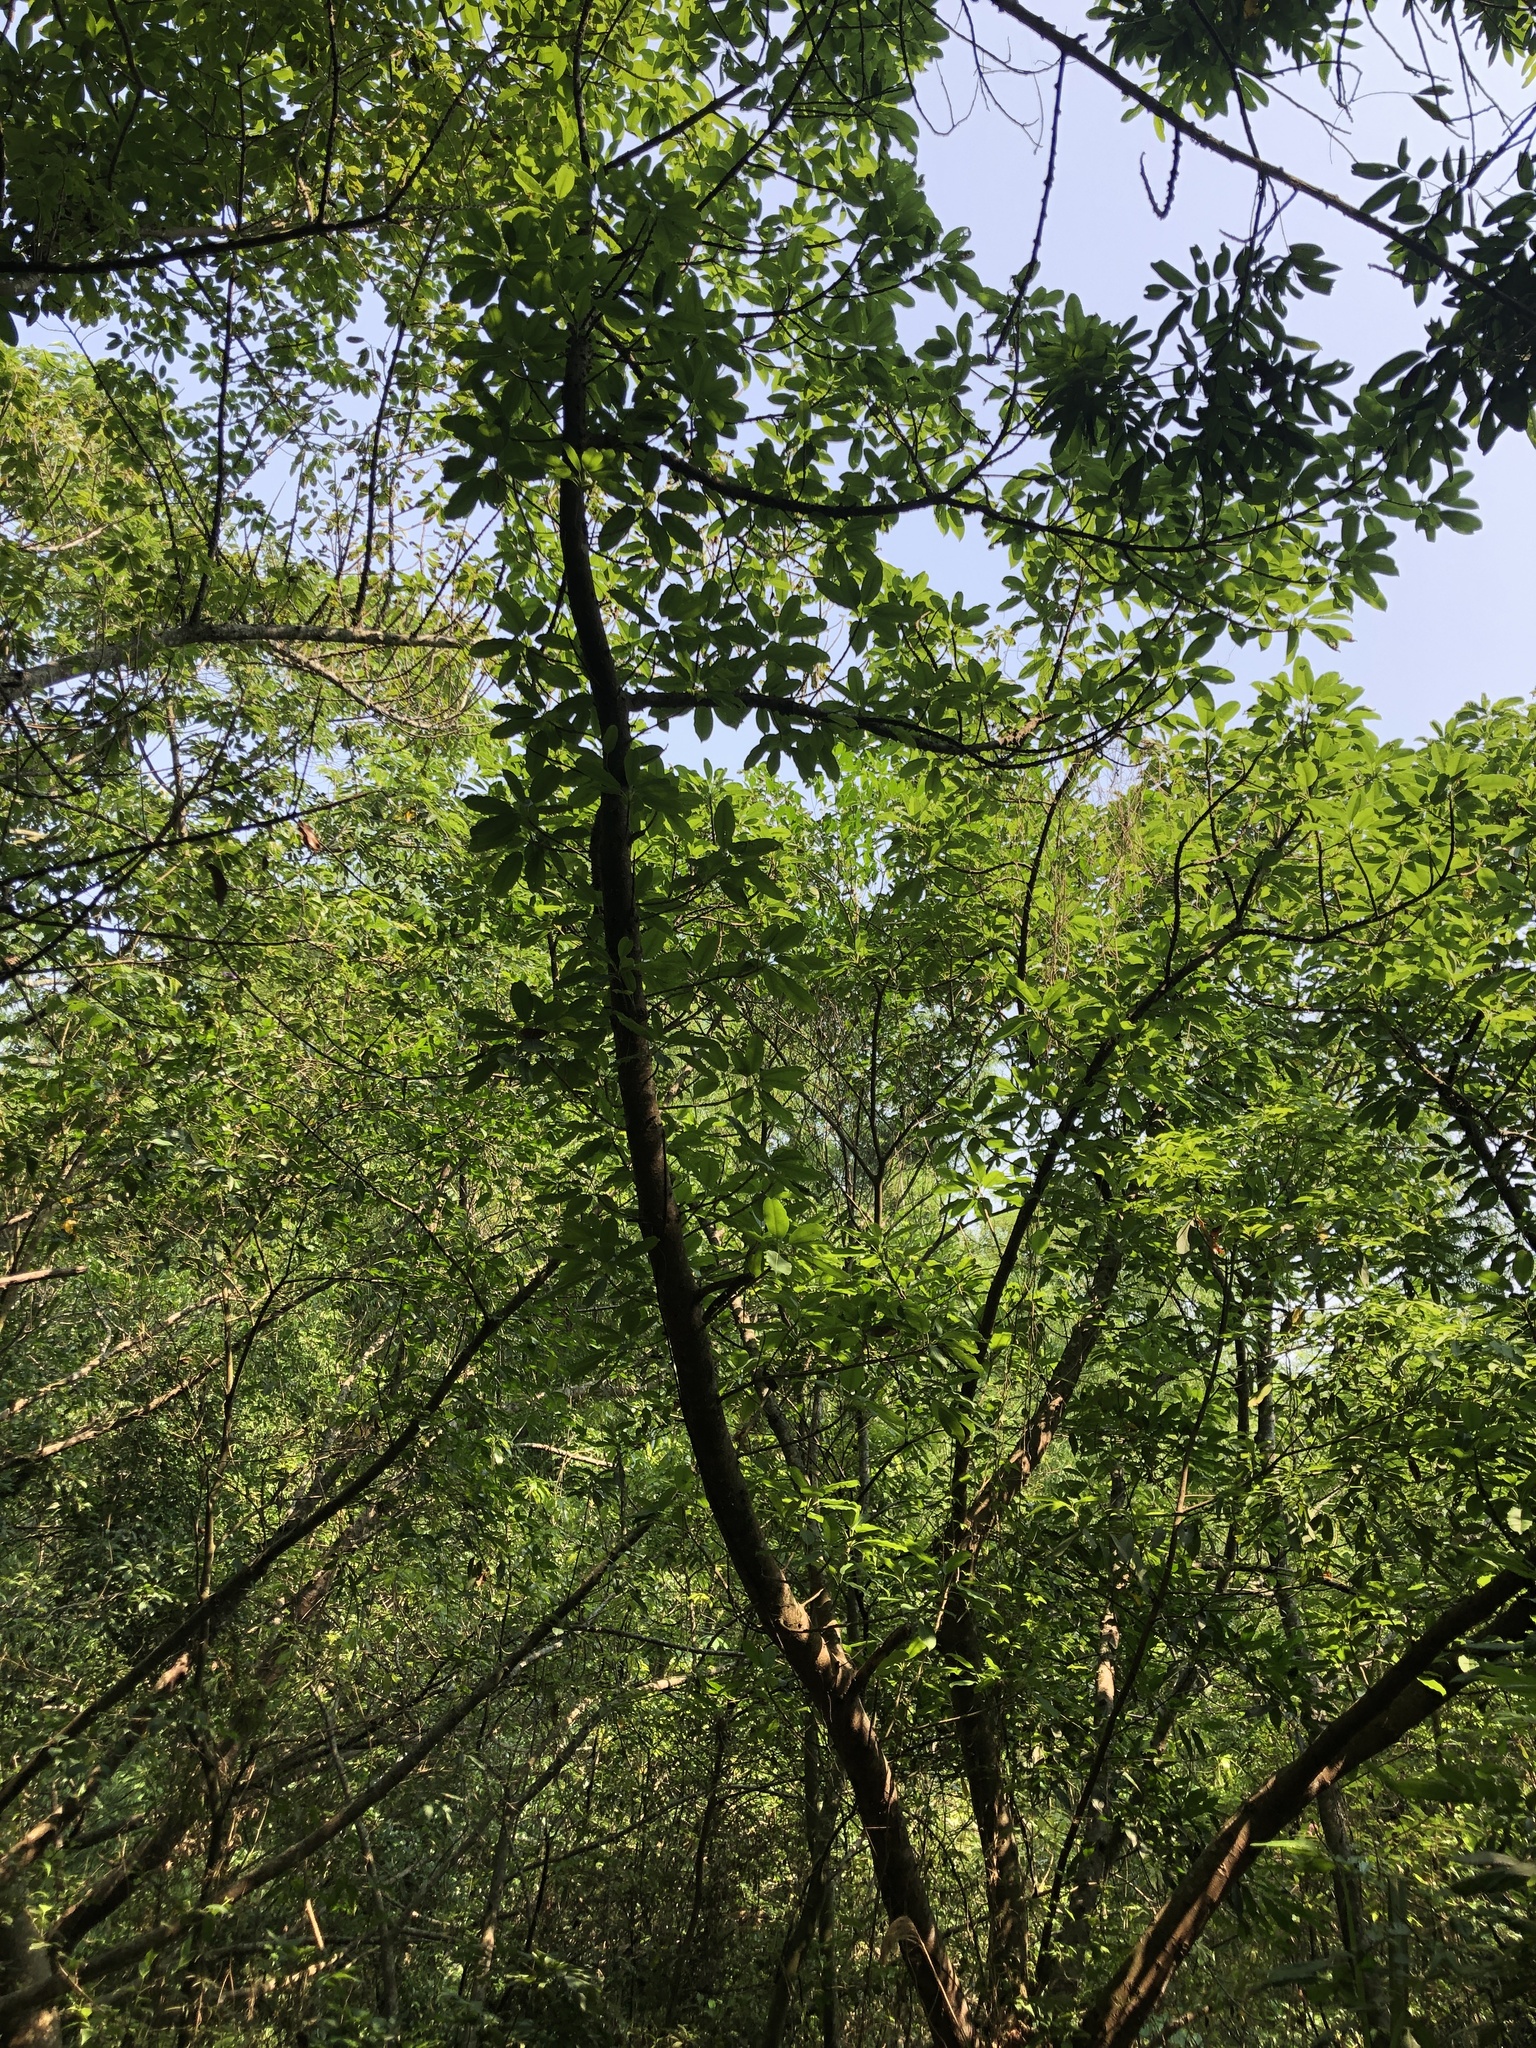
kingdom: Plantae
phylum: Tracheophyta
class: Magnoliopsida
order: Rosales
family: Moraceae
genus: Ficus
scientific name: Ficus subpisocarpa
